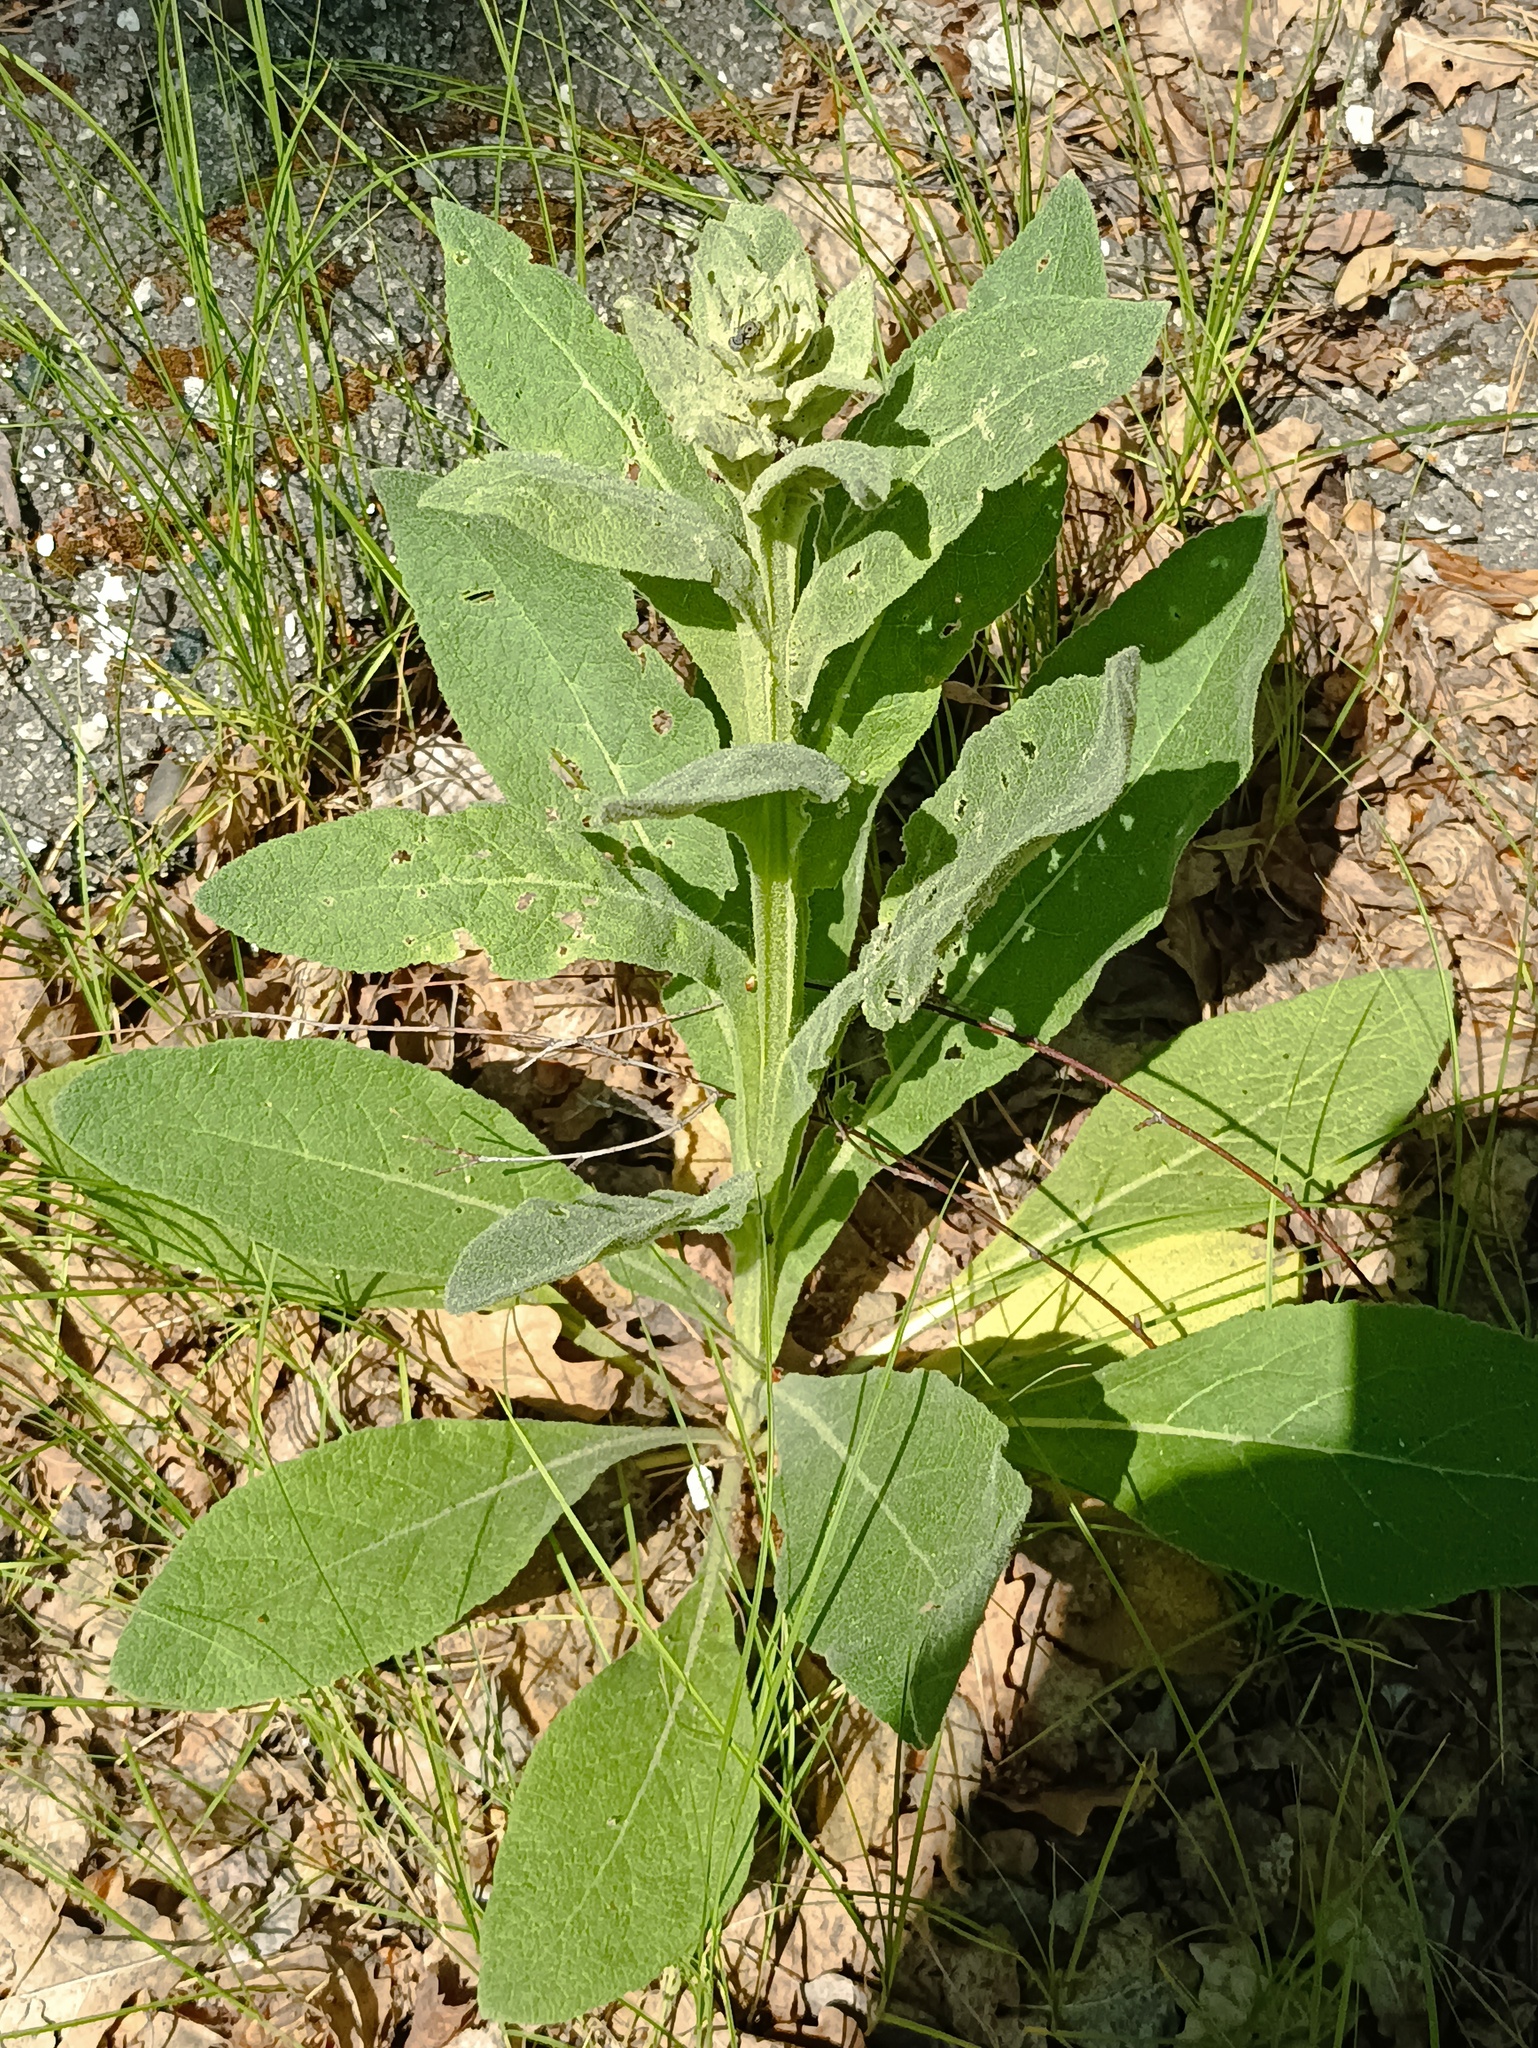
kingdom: Plantae
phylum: Tracheophyta
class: Magnoliopsida
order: Lamiales
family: Scrophulariaceae
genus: Verbascum
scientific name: Verbascum thapsus
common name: Common mullein
